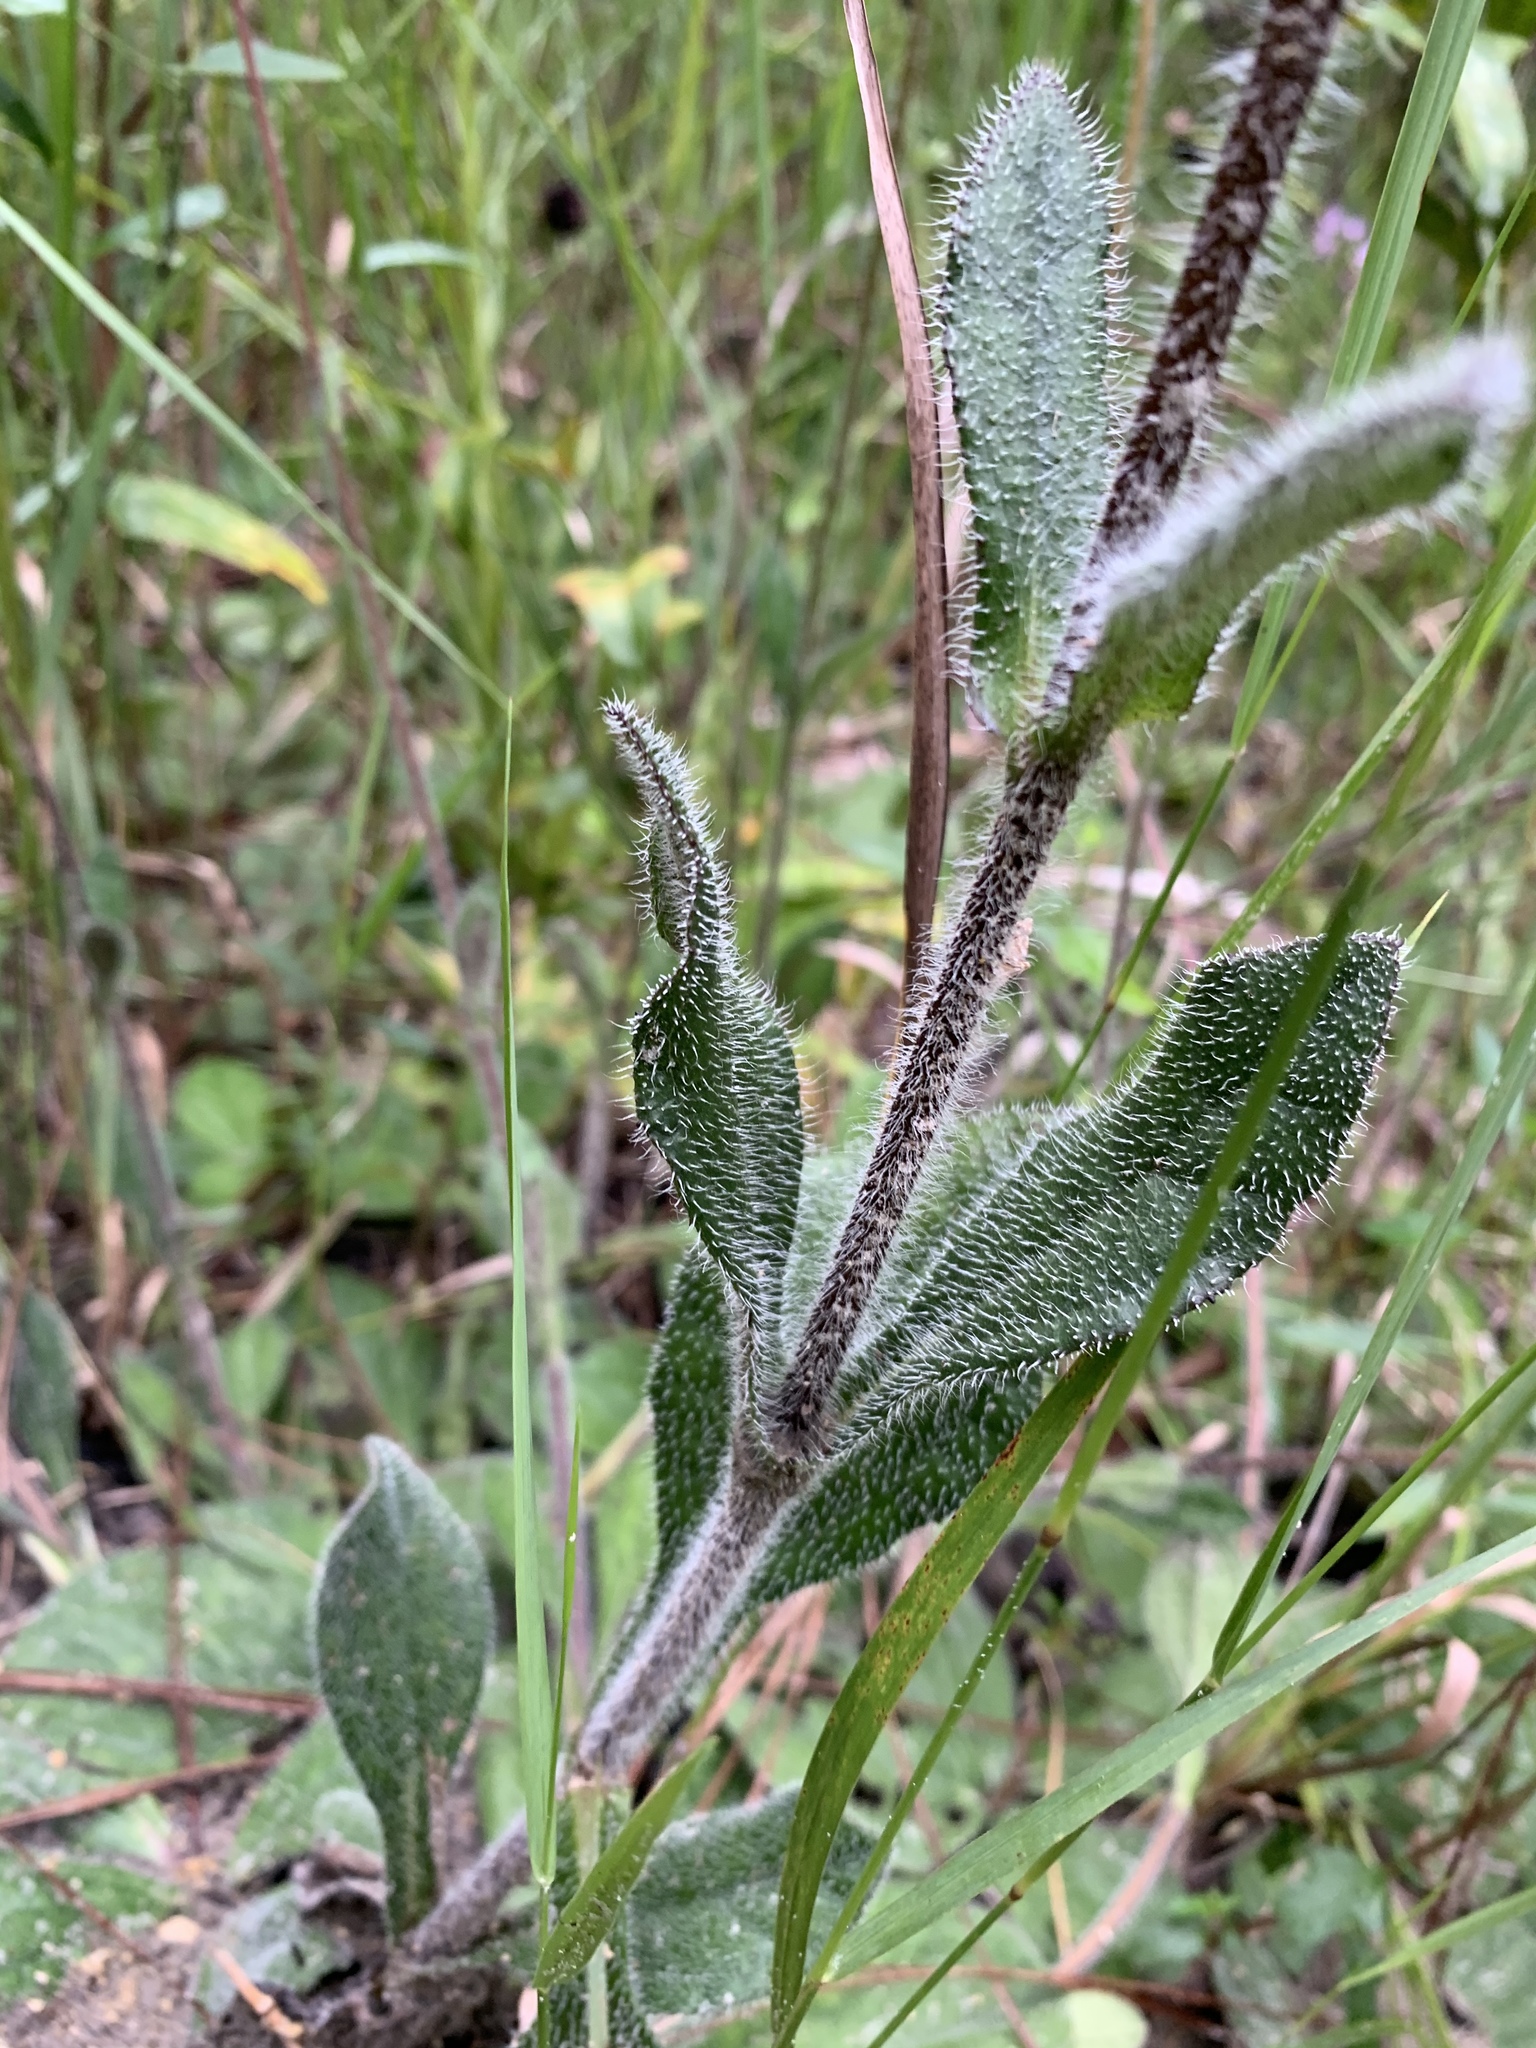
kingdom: Plantae
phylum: Tracheophyta
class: Magnoliopsida
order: Asterales
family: Asteraceae
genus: Helianthus
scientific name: Helianthus radula
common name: Pineland sunflower
